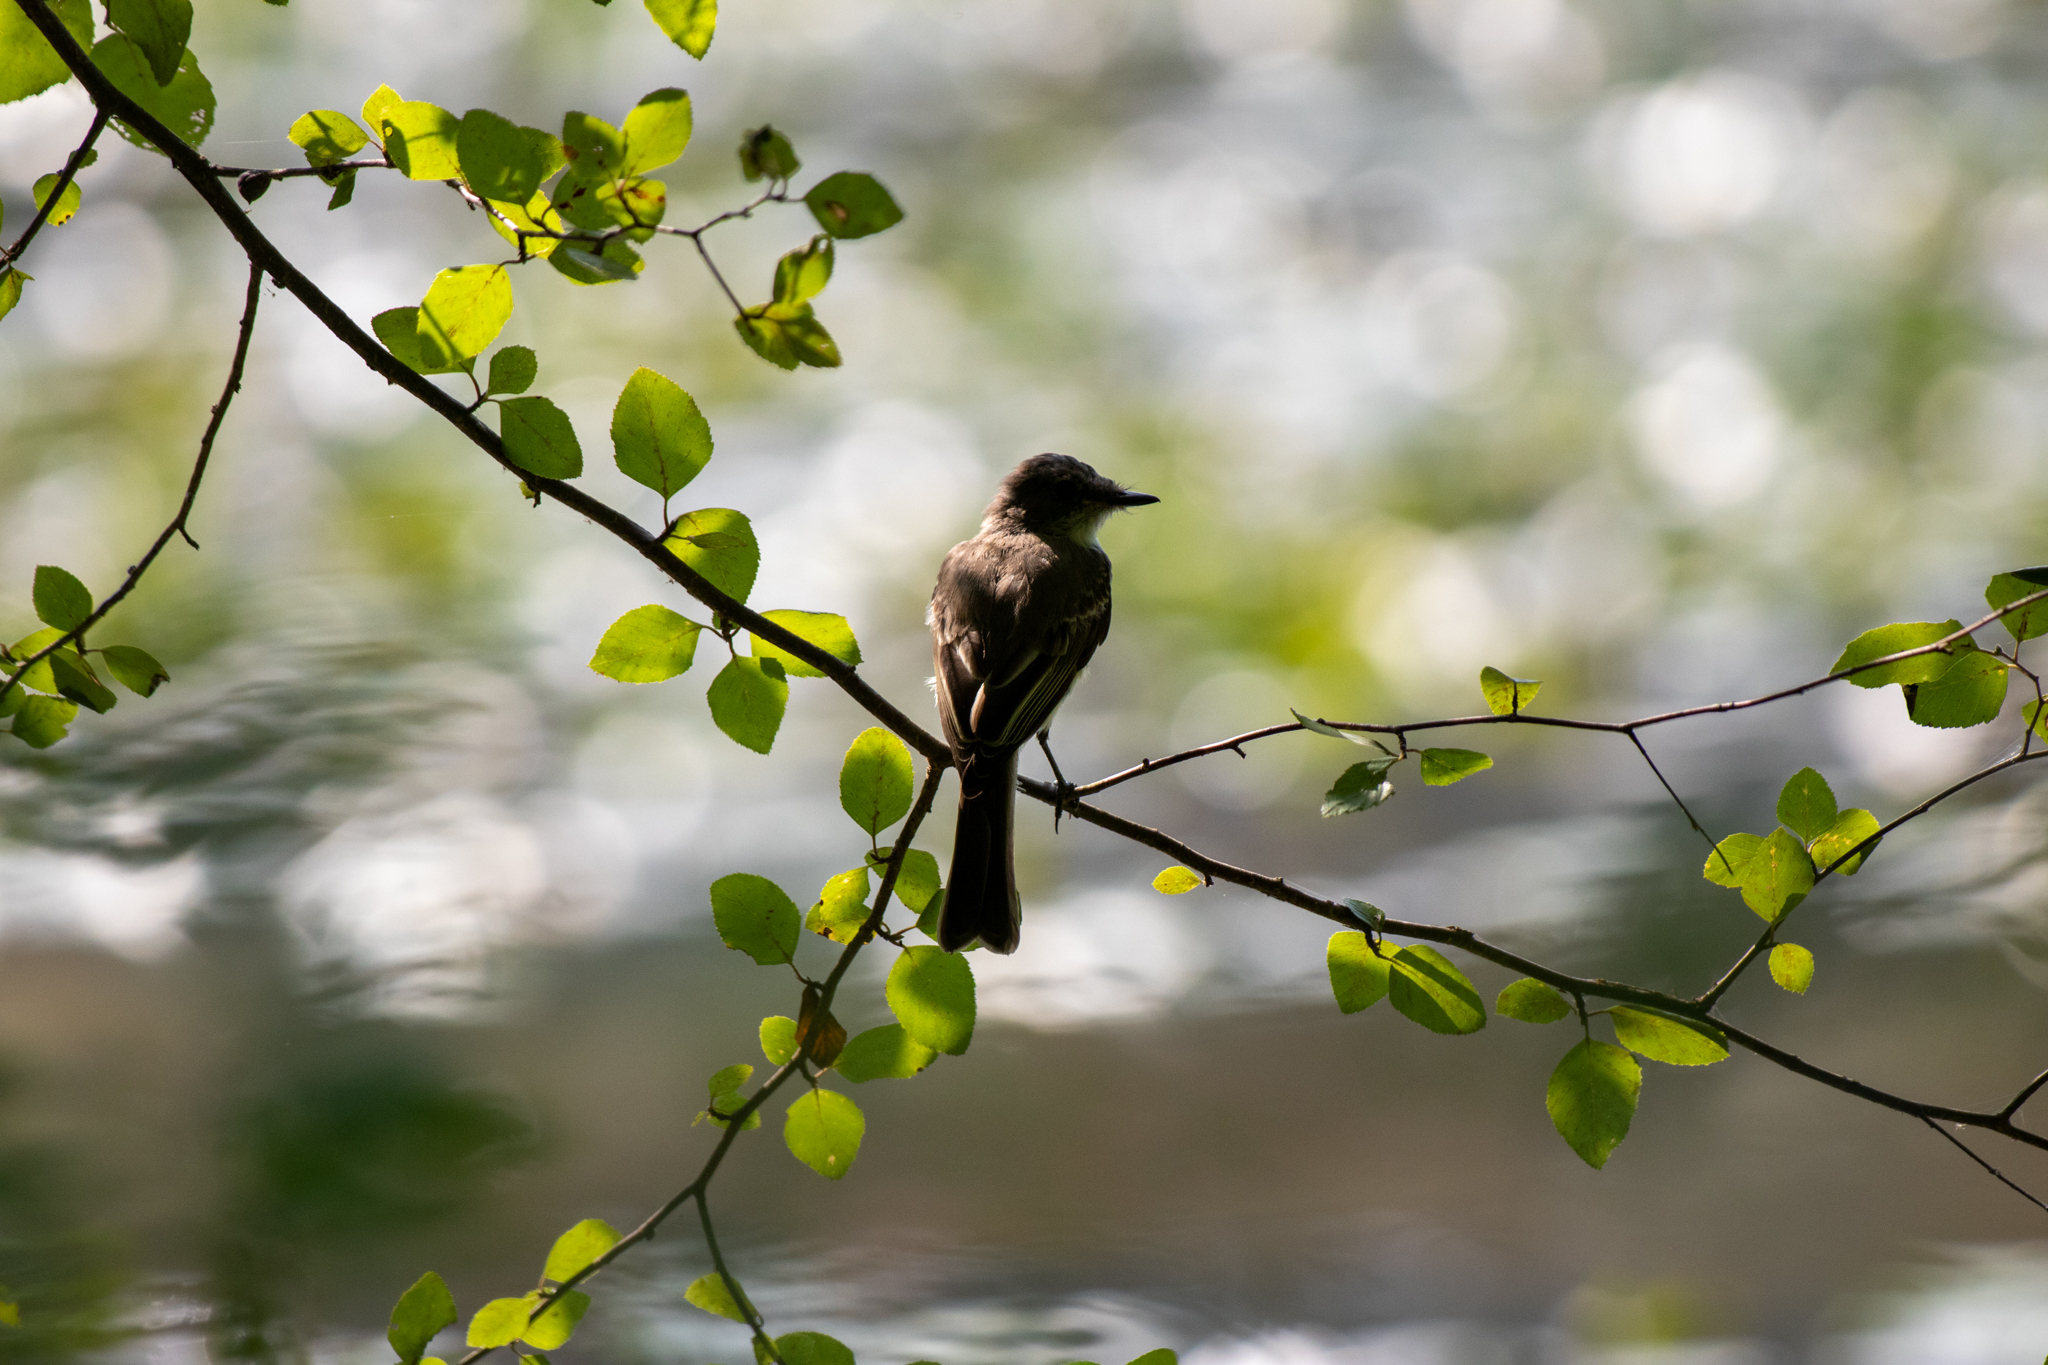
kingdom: Animalia
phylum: Chordata
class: Aves
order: Passeriformes
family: Tyrannidae
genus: Sayornis
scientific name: Sayornis phoebe
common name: Eastern phoebe
